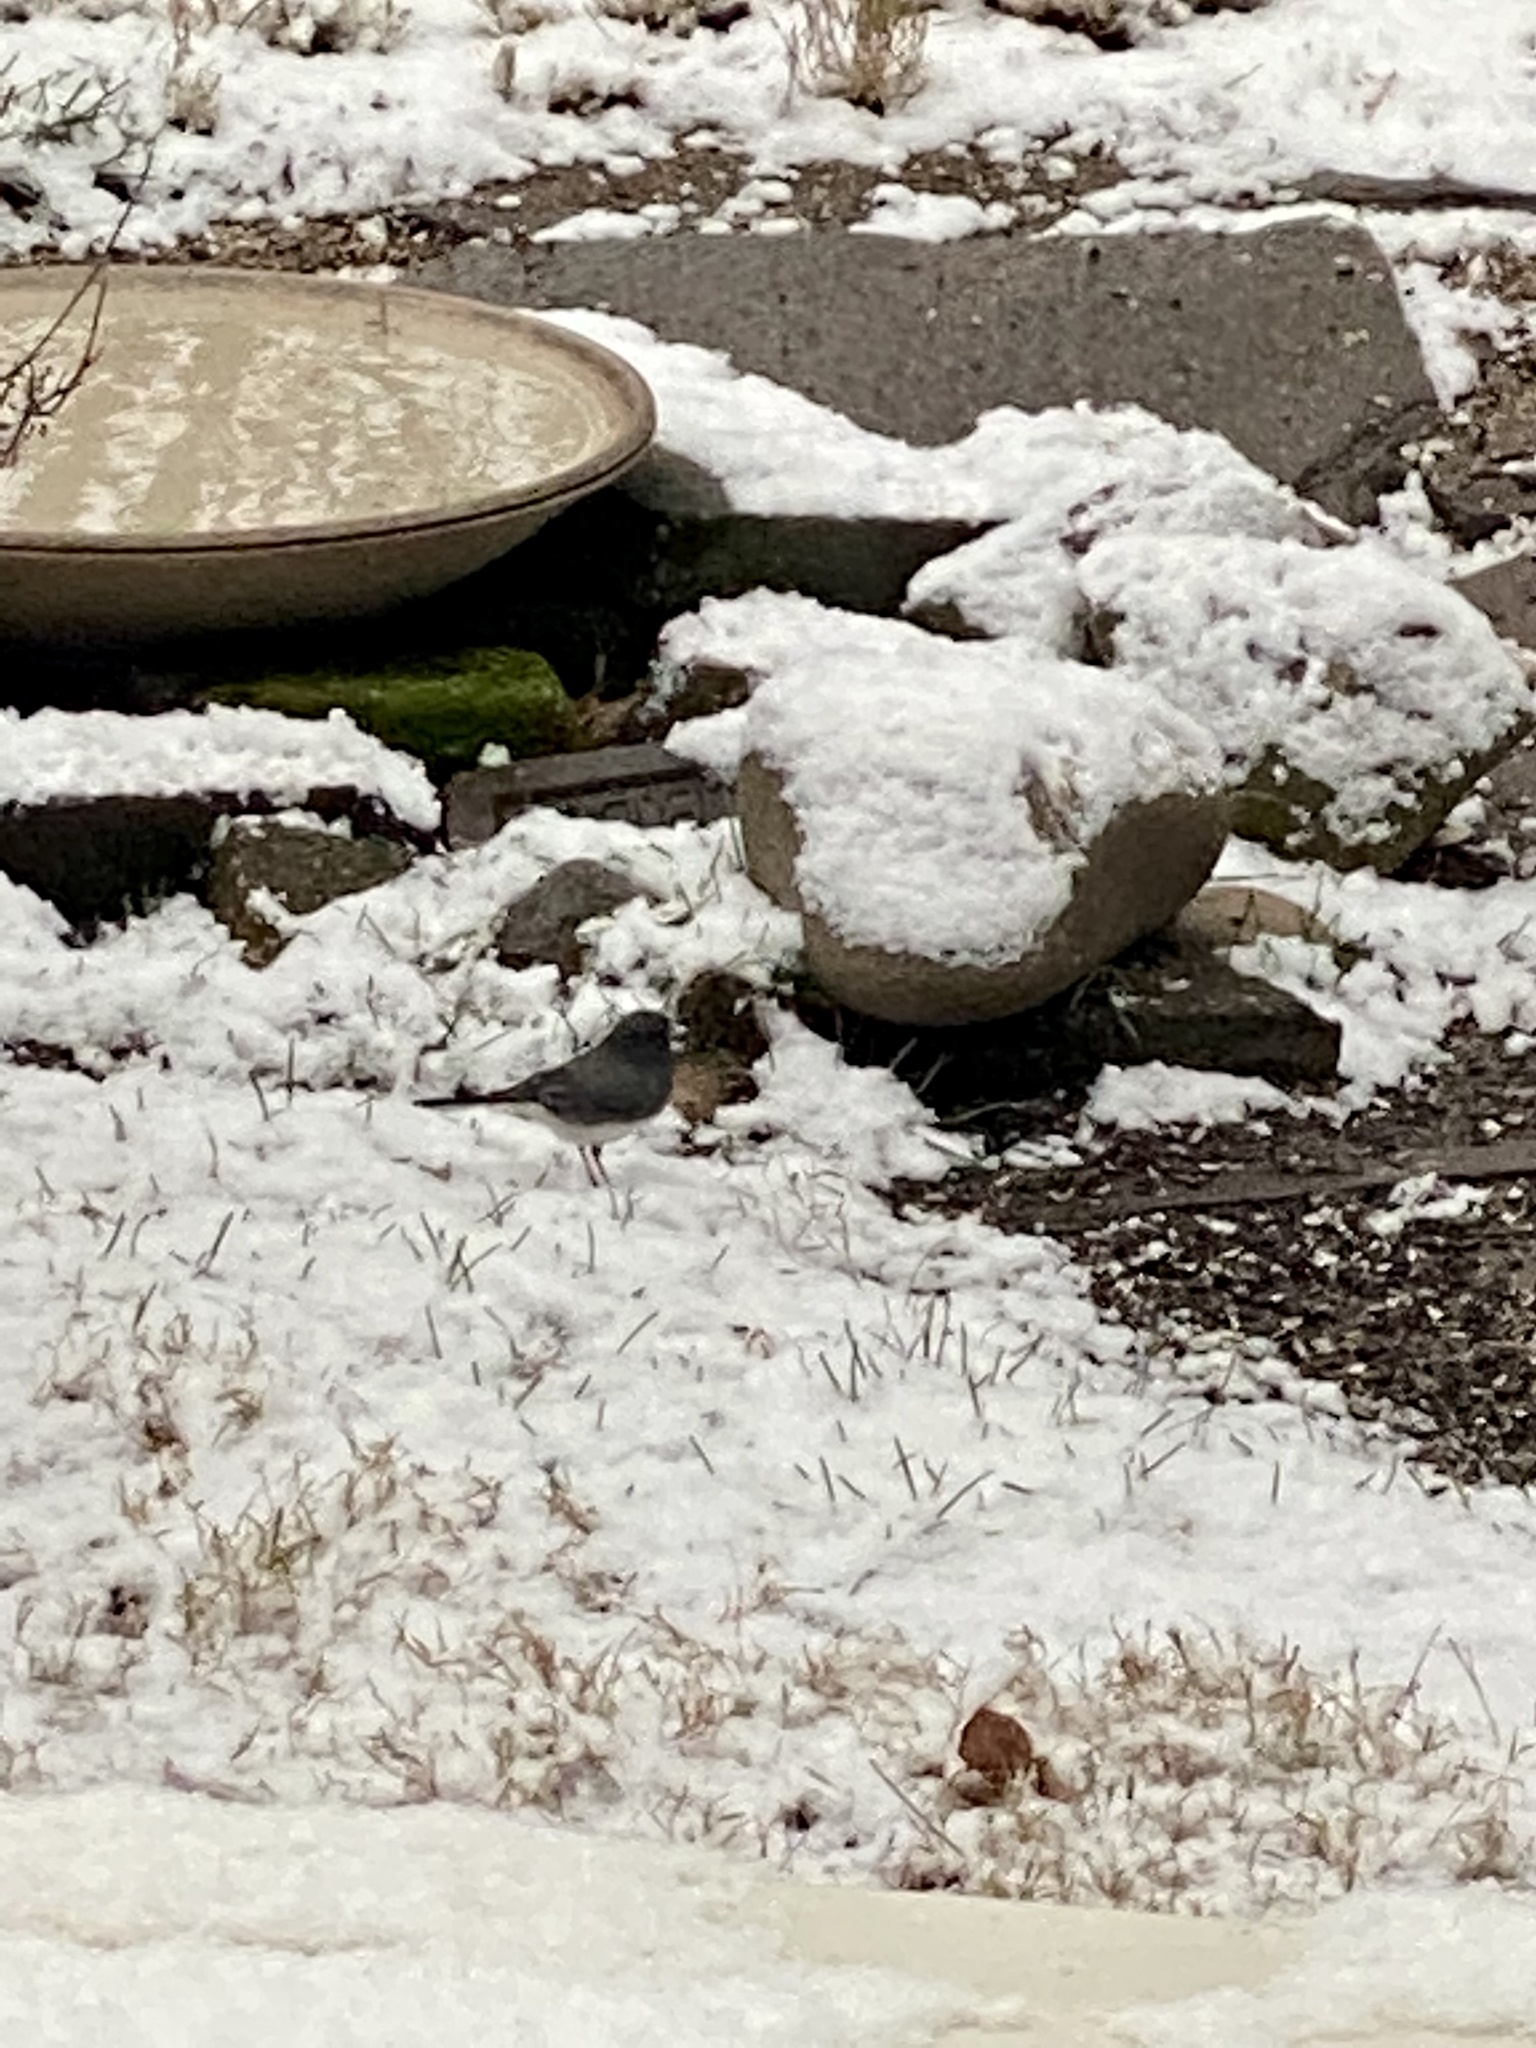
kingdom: Animalia
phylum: Chordata
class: Aves
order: Passeriformes
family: Passerellidae
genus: Junco
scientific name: Junco hyemalis
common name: Dark-eyed junco
